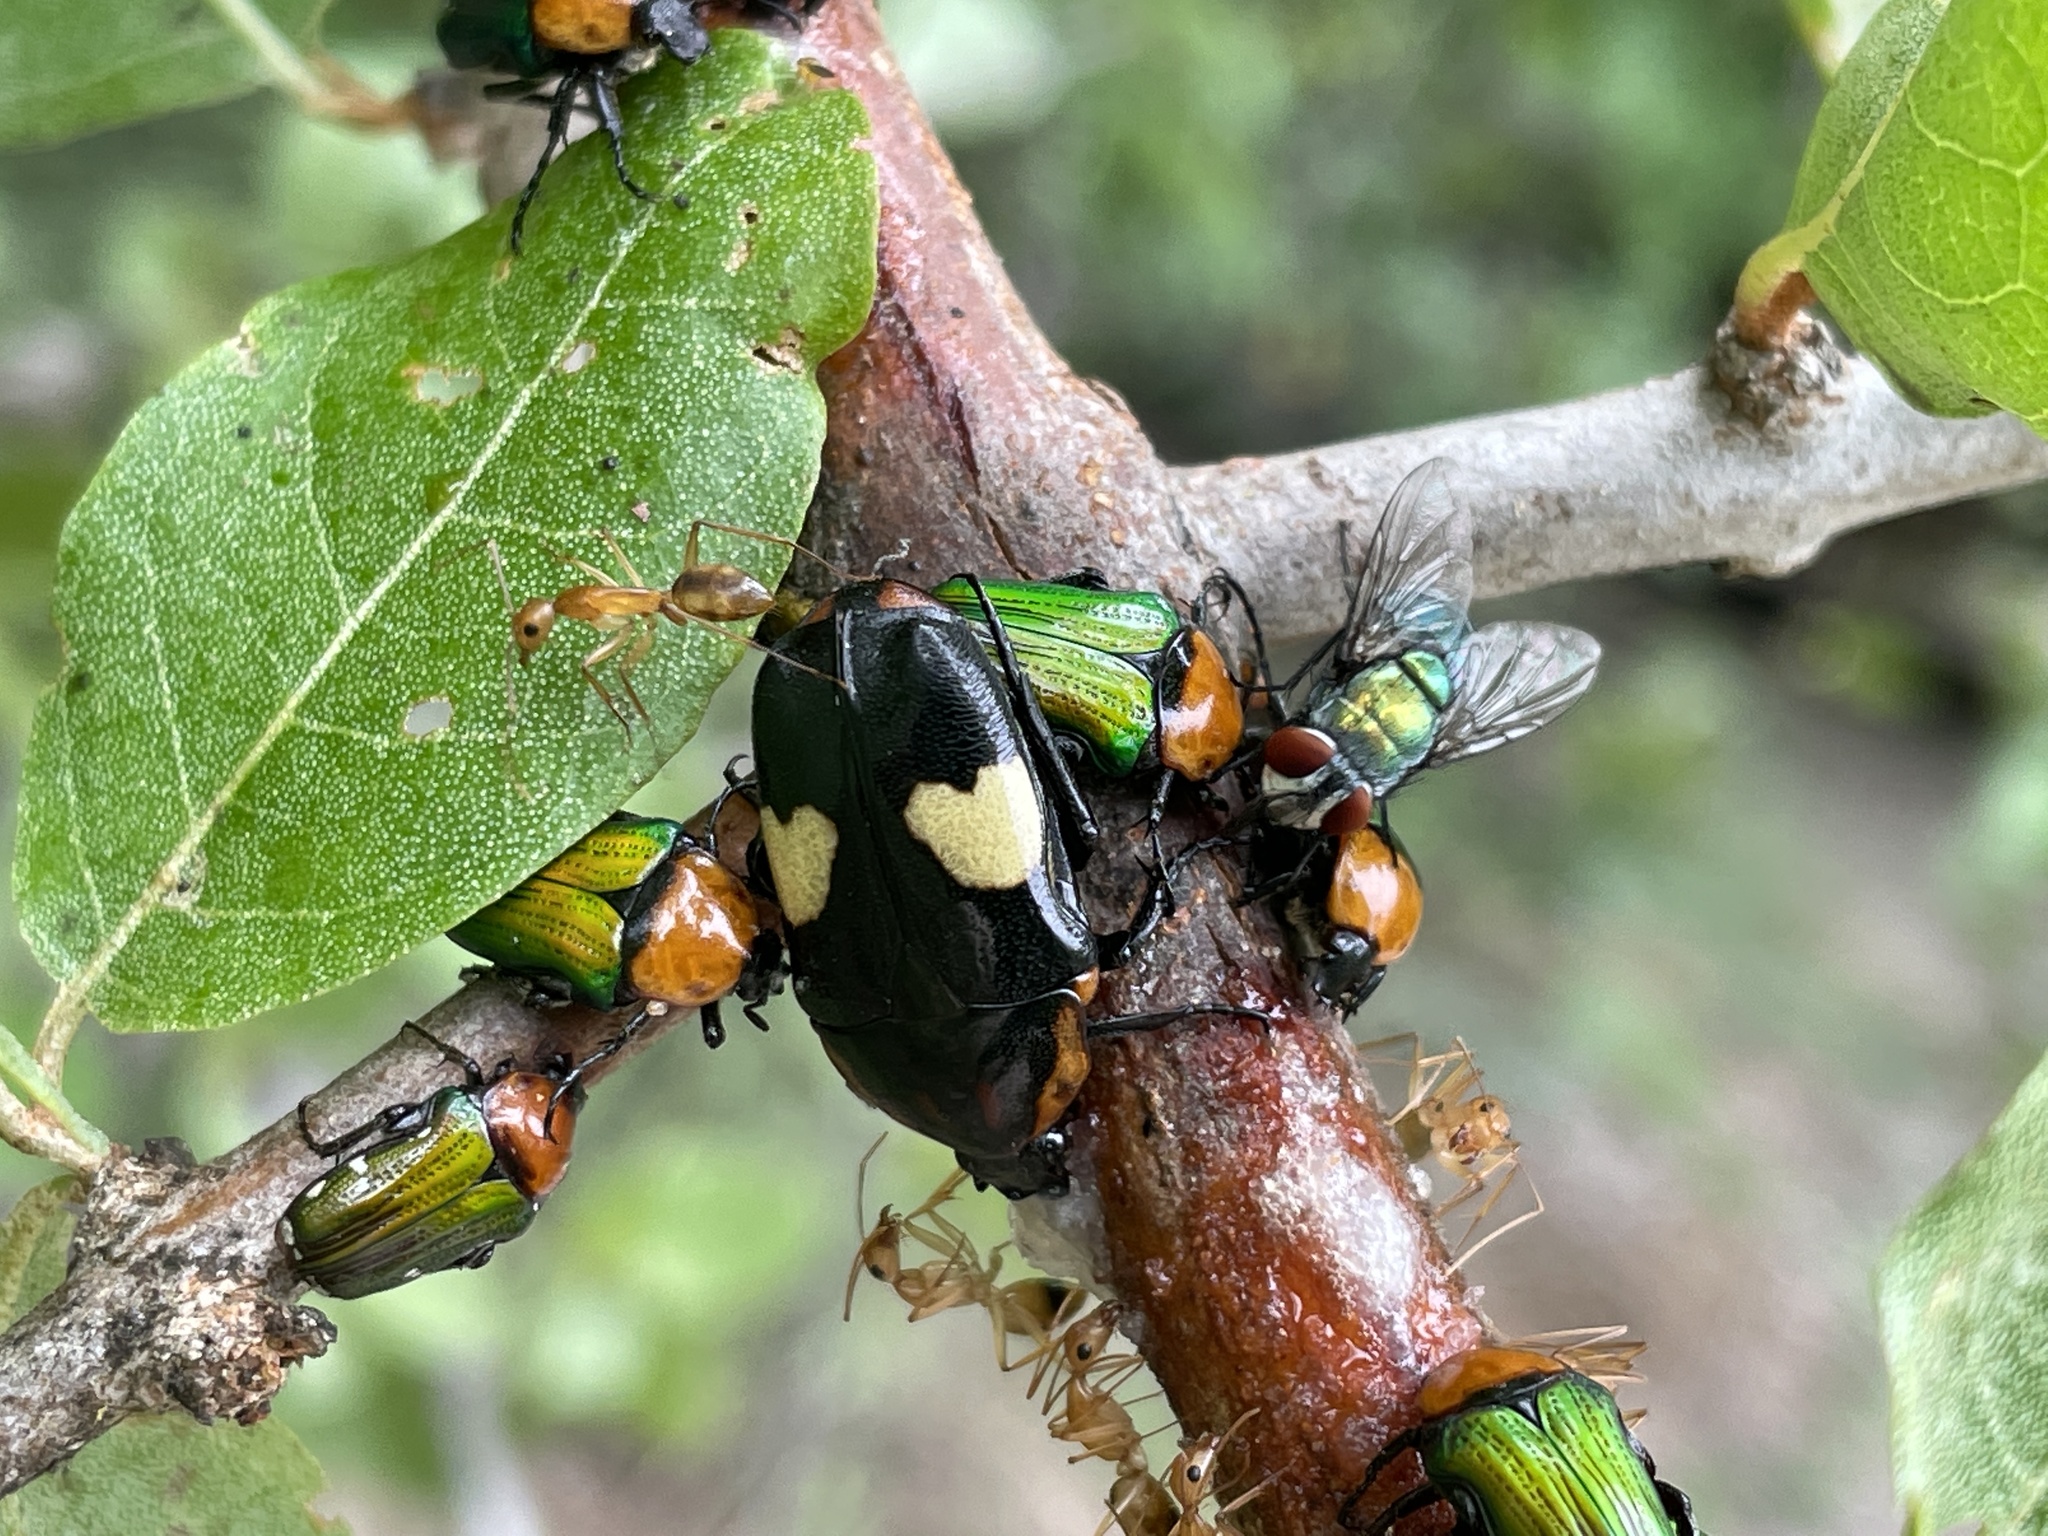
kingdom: Animalia
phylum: Arthropoda
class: Insecta
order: Coleoptera
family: Scarabaeidae
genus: Pedinorrhina
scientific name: Pedinorrhina
